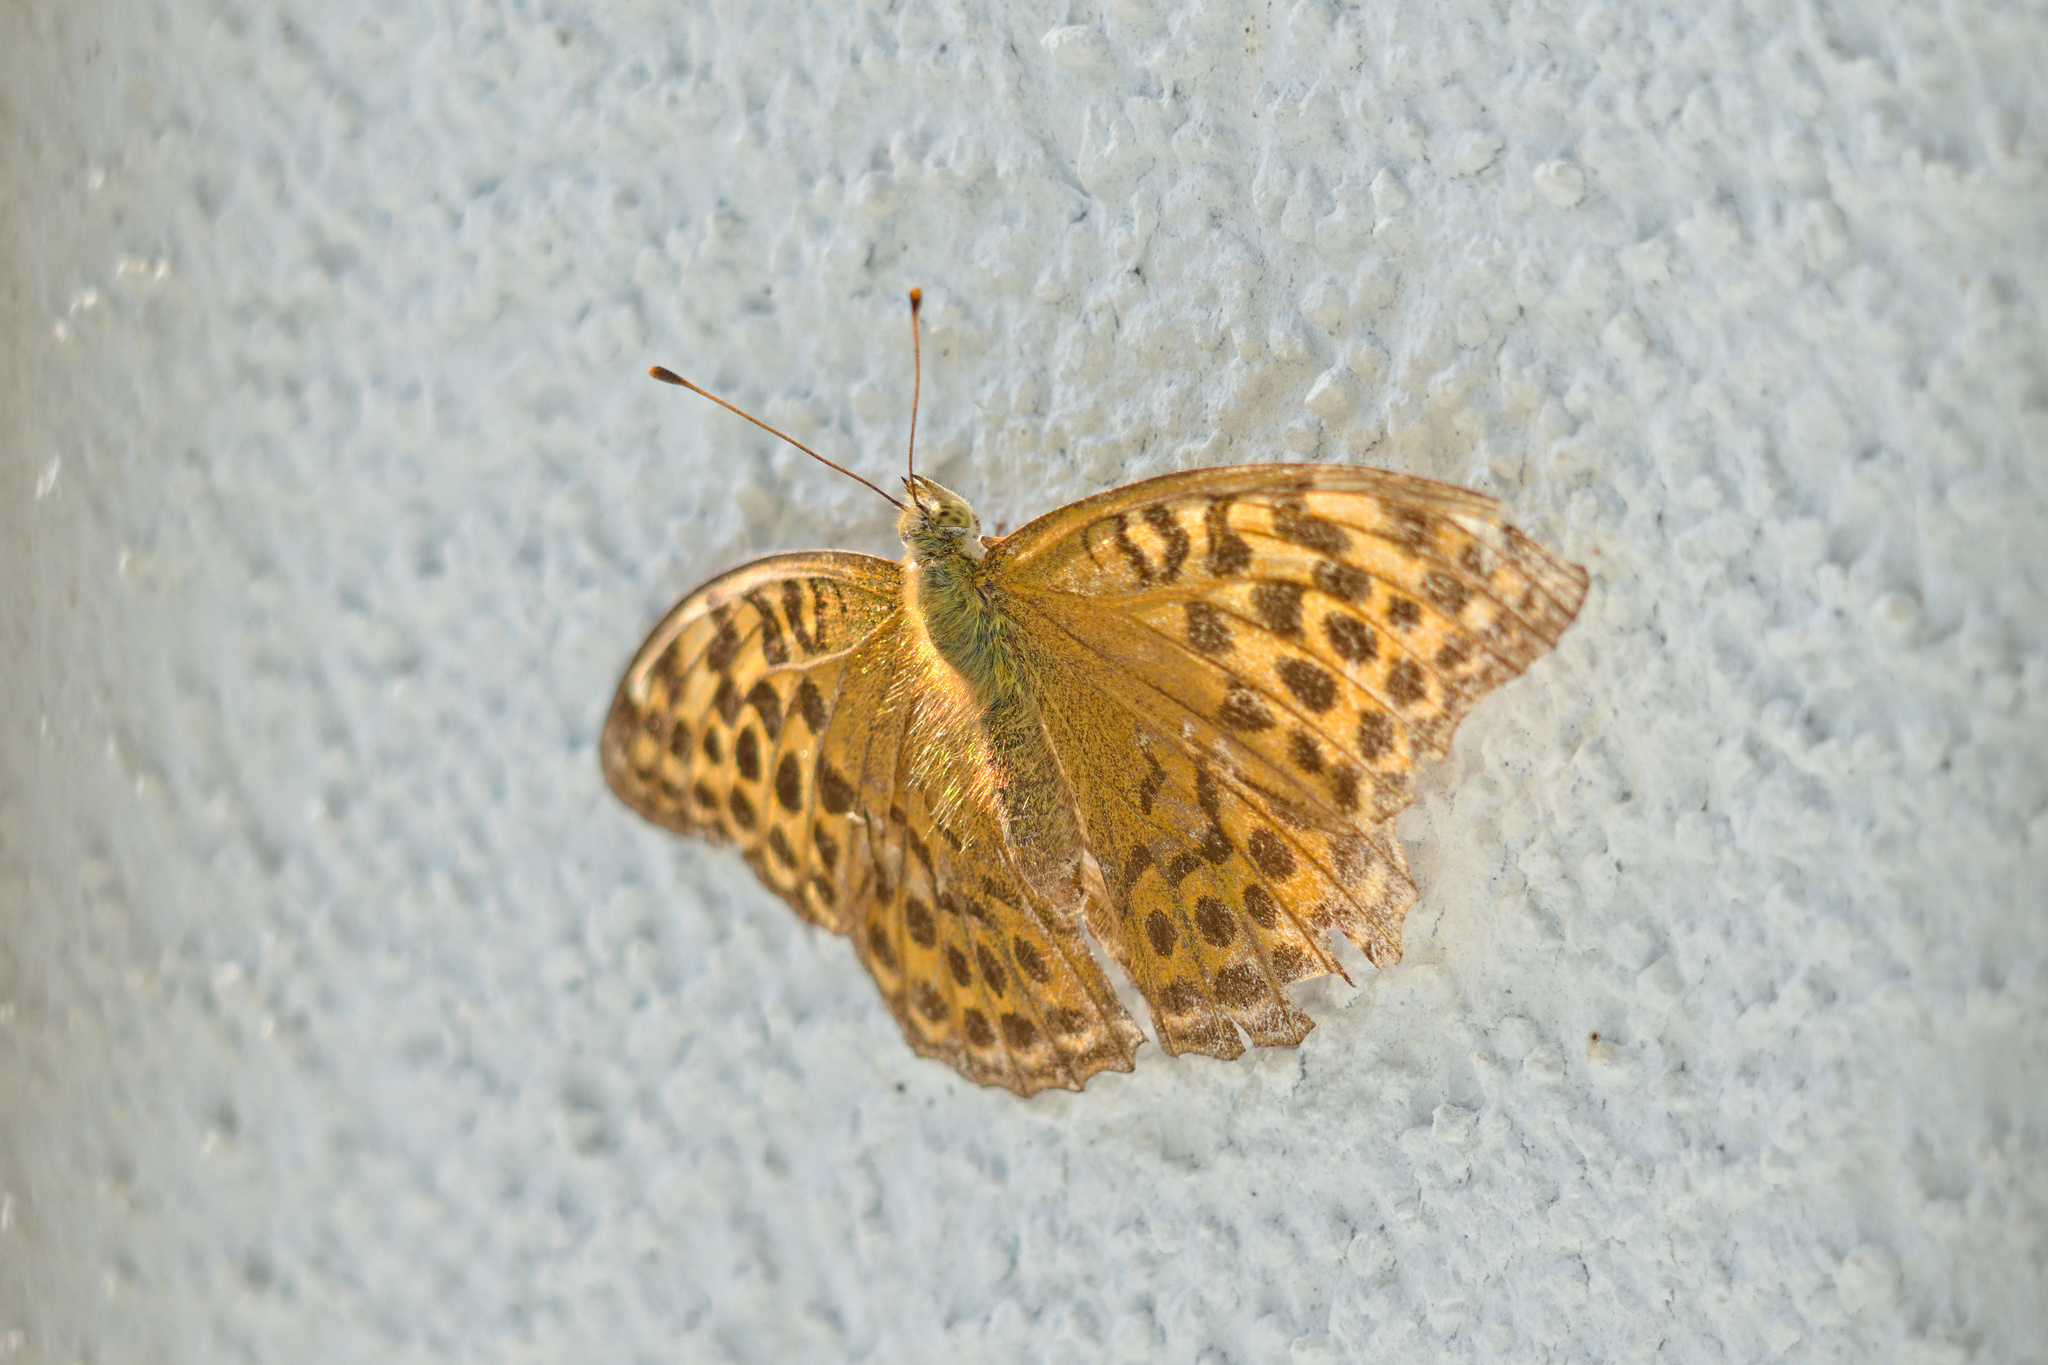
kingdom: Animalia
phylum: Arthropoda
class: Insecta
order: Lepidoptera
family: Nymphalidae
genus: Argynnis
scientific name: Argynnis paphia
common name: Silver-washed fritillary
